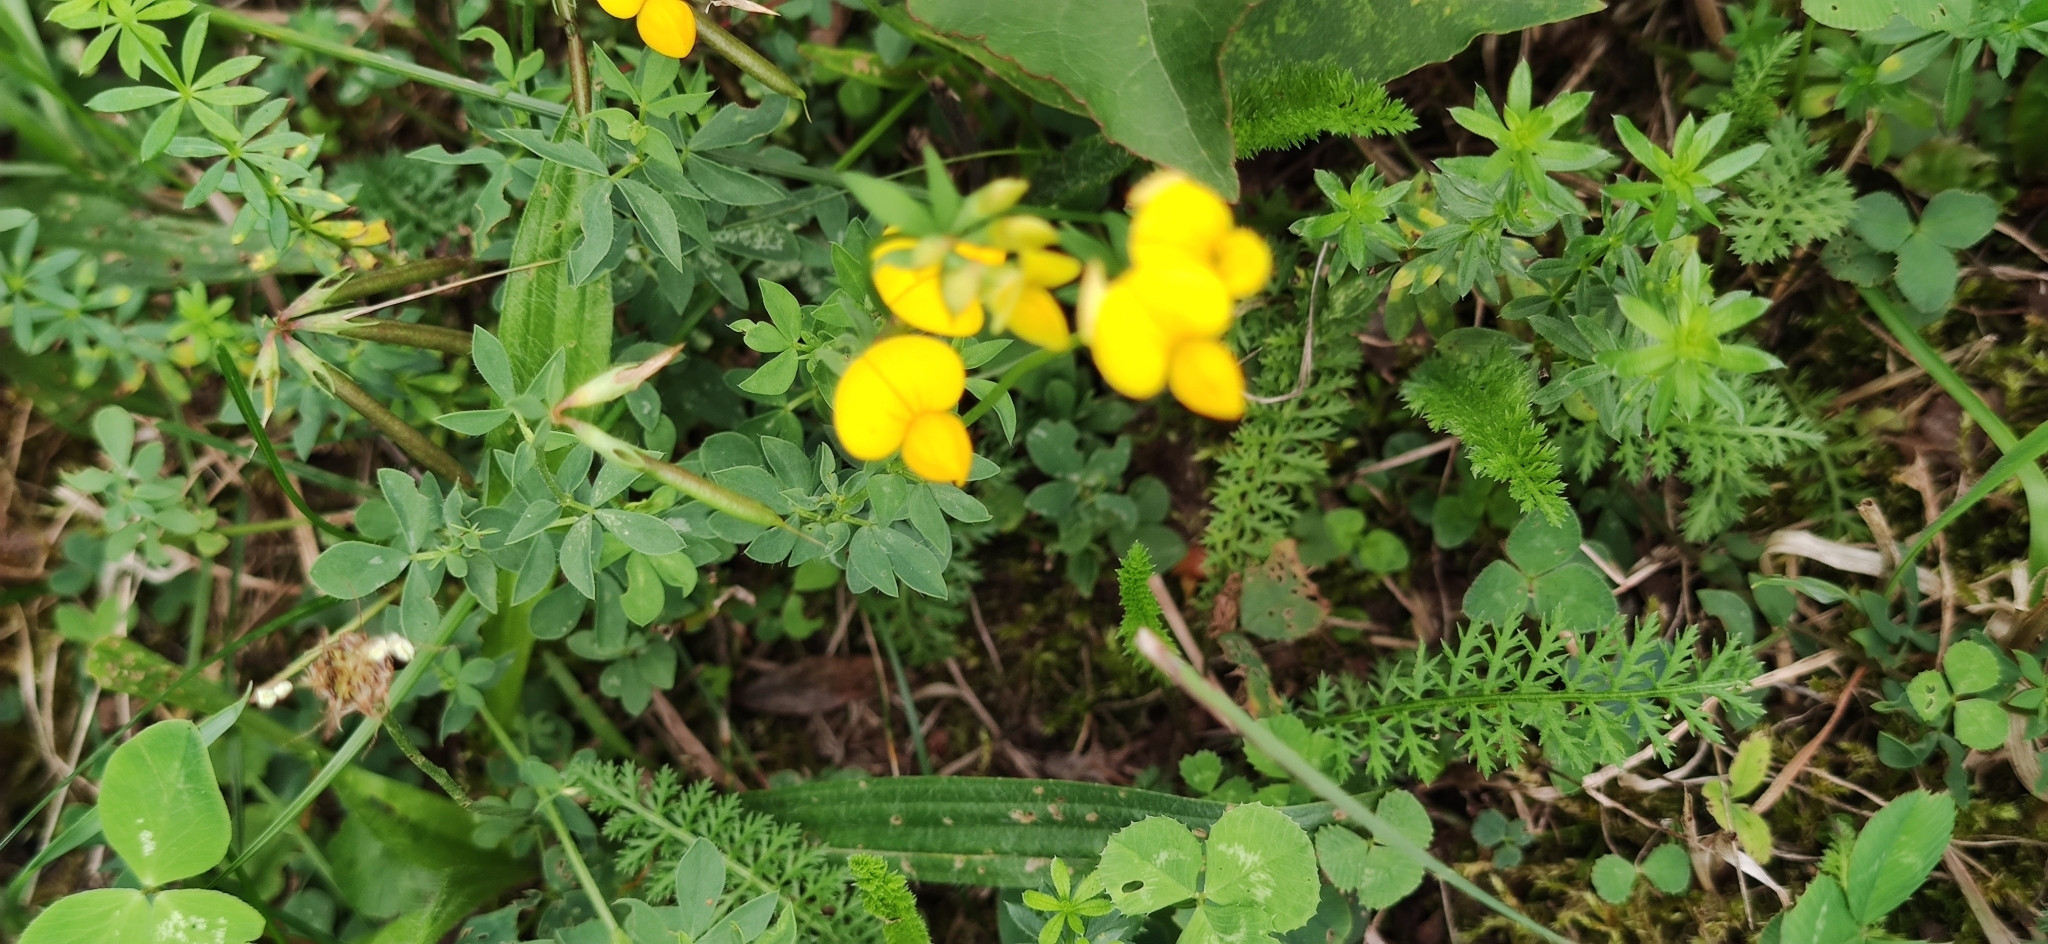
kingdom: Plantae
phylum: Tracheophyta
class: Magnoliopsida
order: Fabales
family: Fabaceae
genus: Lotus
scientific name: Lotus corniculatus
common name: Common bird's-foot-trefoil
